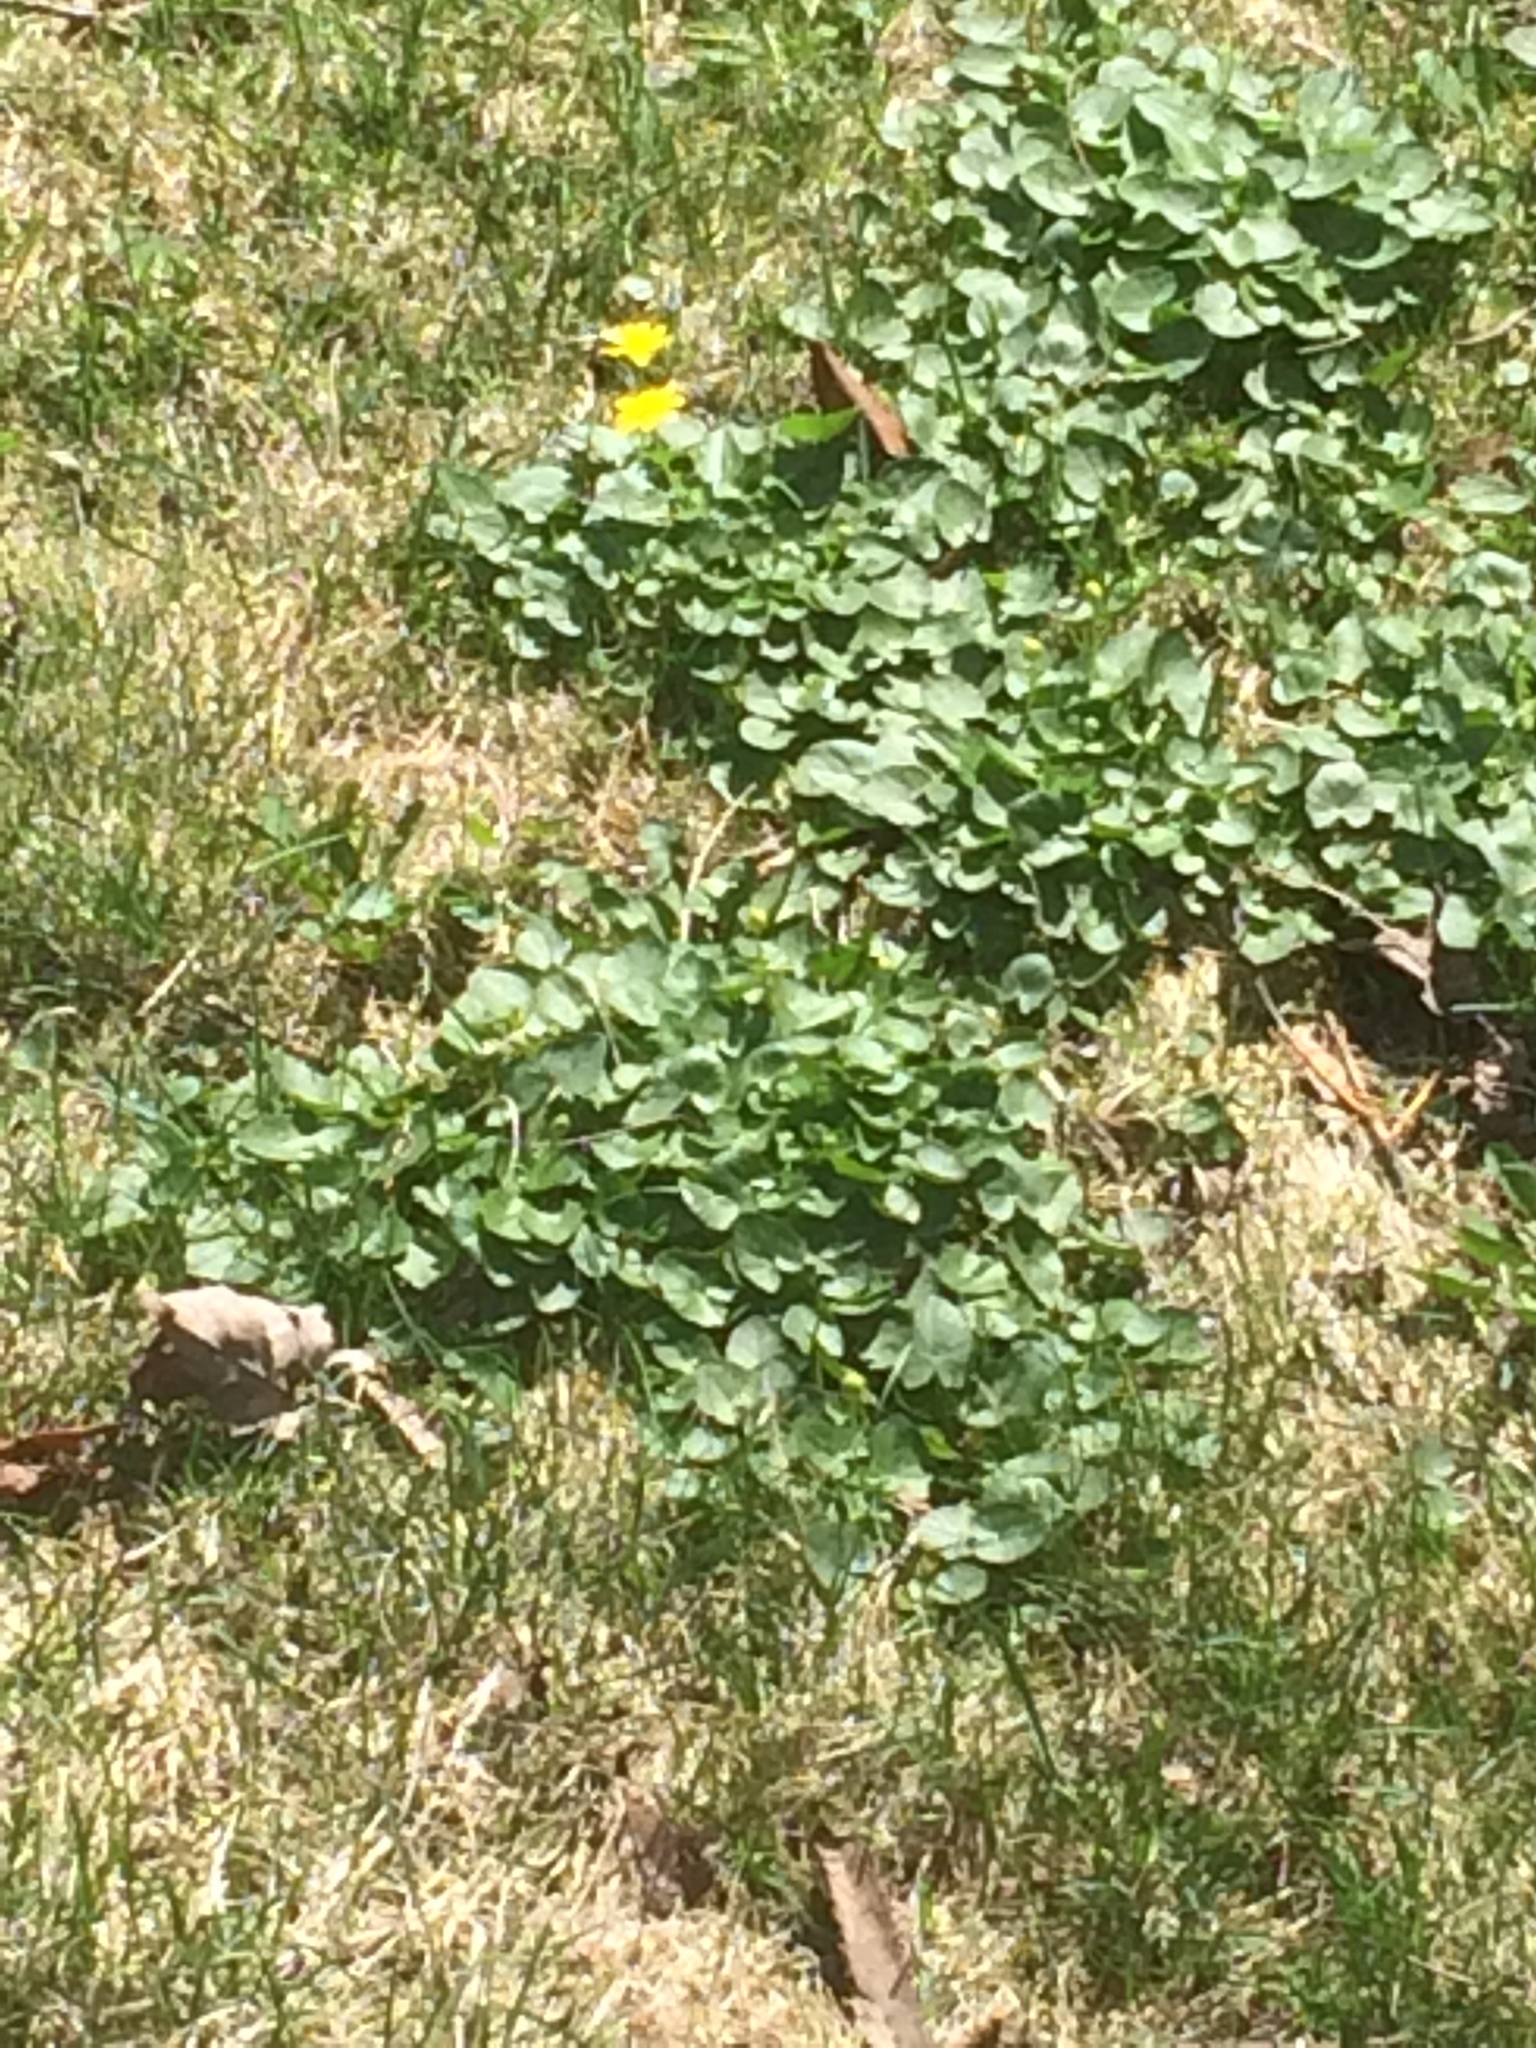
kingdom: Plantae
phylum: Tracheophyta
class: Magnoliopsida
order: Ranunculales
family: Ranunculaceae
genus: Ficaria
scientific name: Ficaria verna
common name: Lesser celandine
